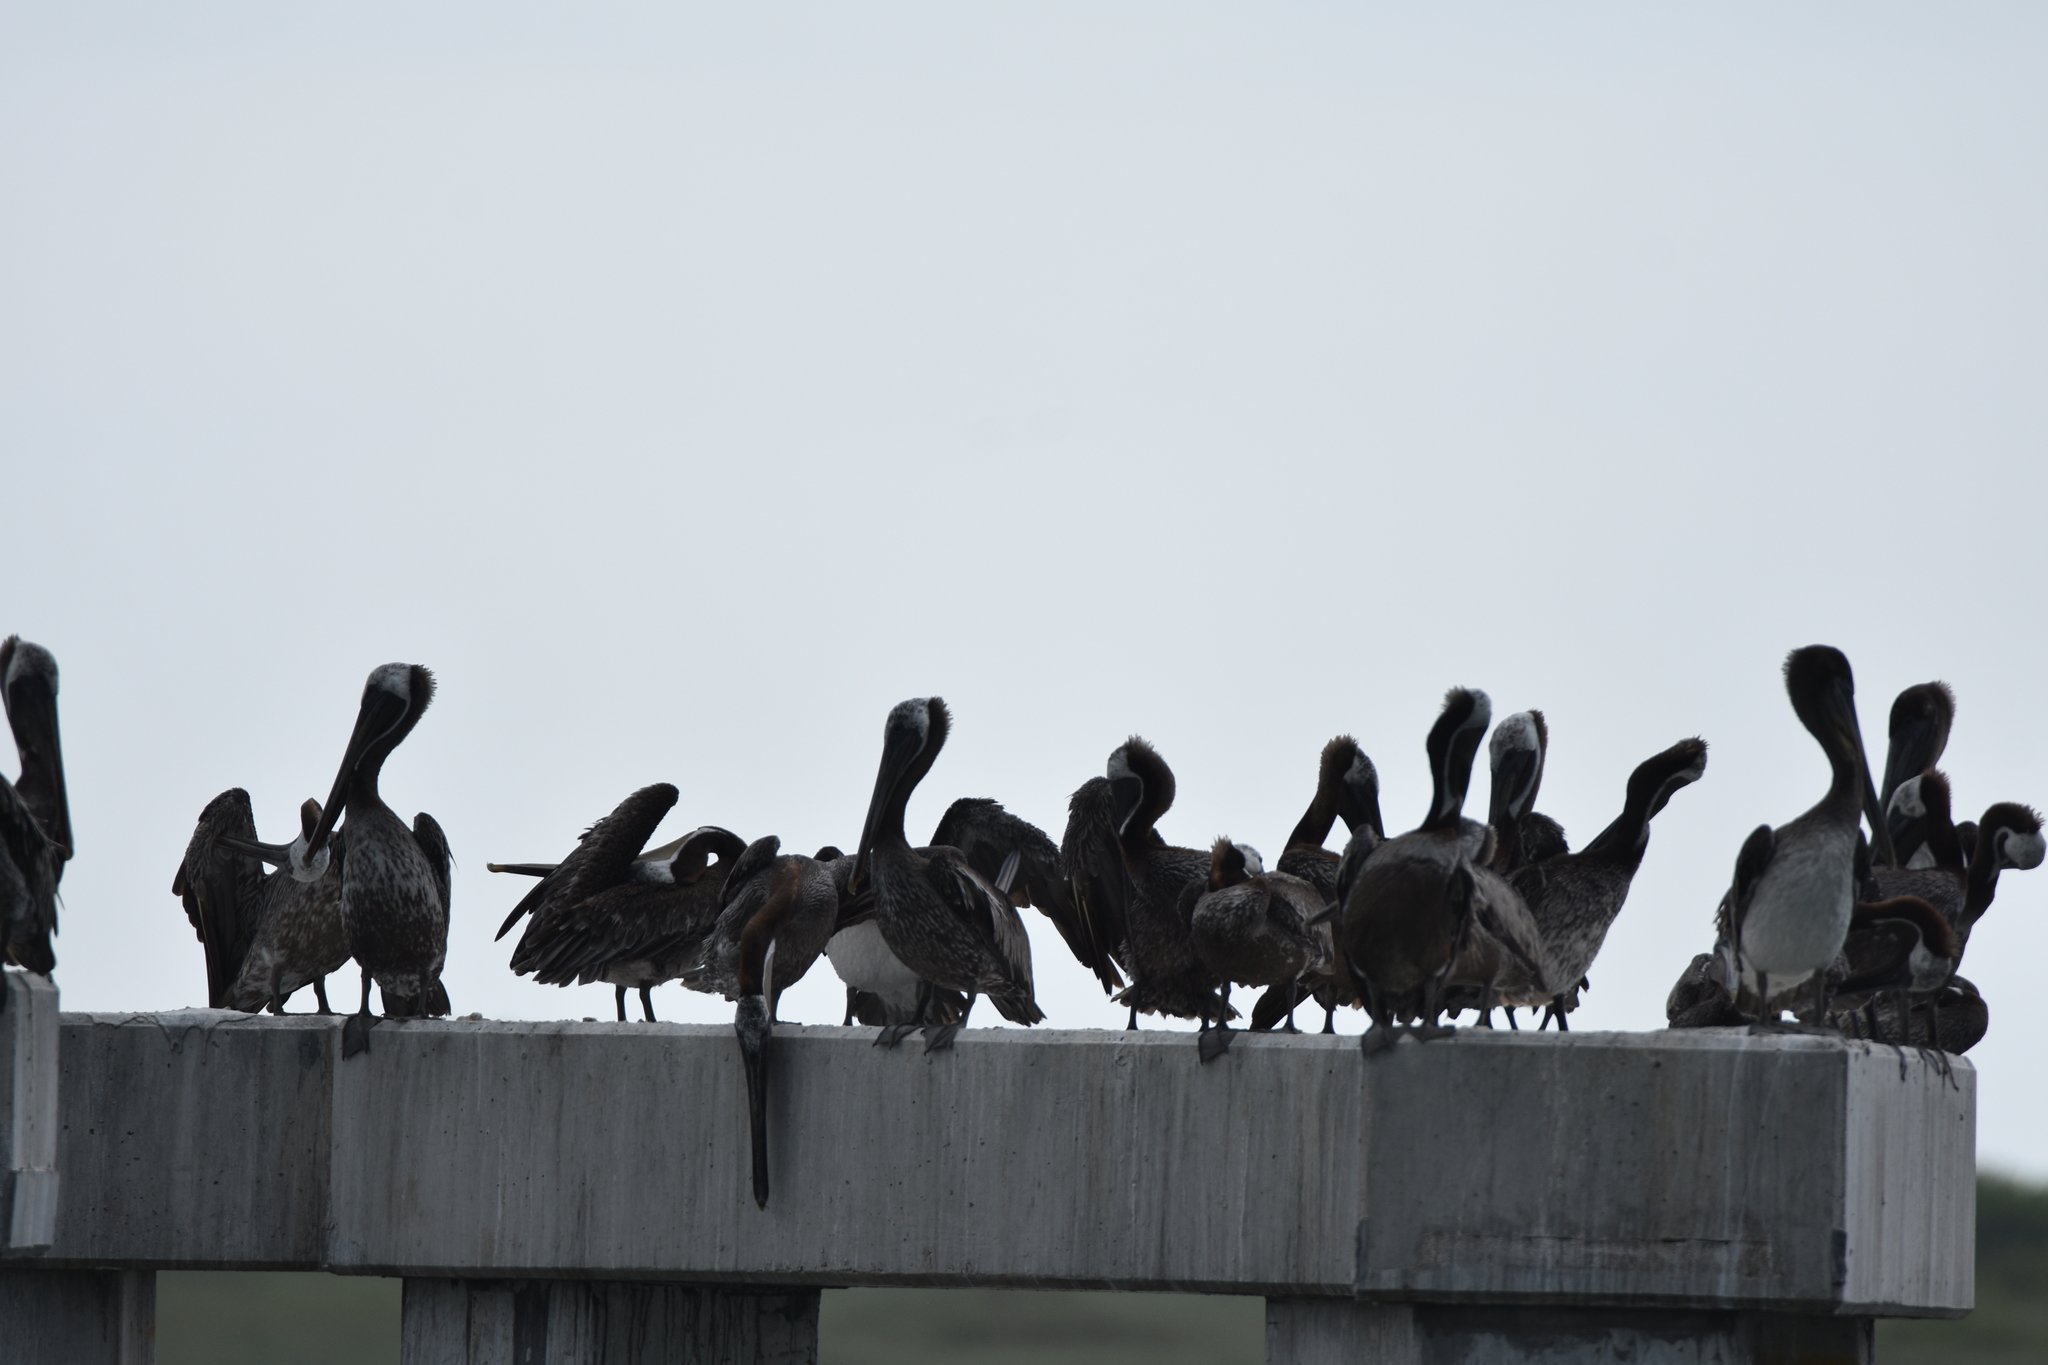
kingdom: Animalia
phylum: Chordata
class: Aves
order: Pelecaniformes
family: Pelecanidae
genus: Pelecanus
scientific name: Pelecanus occidentalis
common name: Brown pelican
